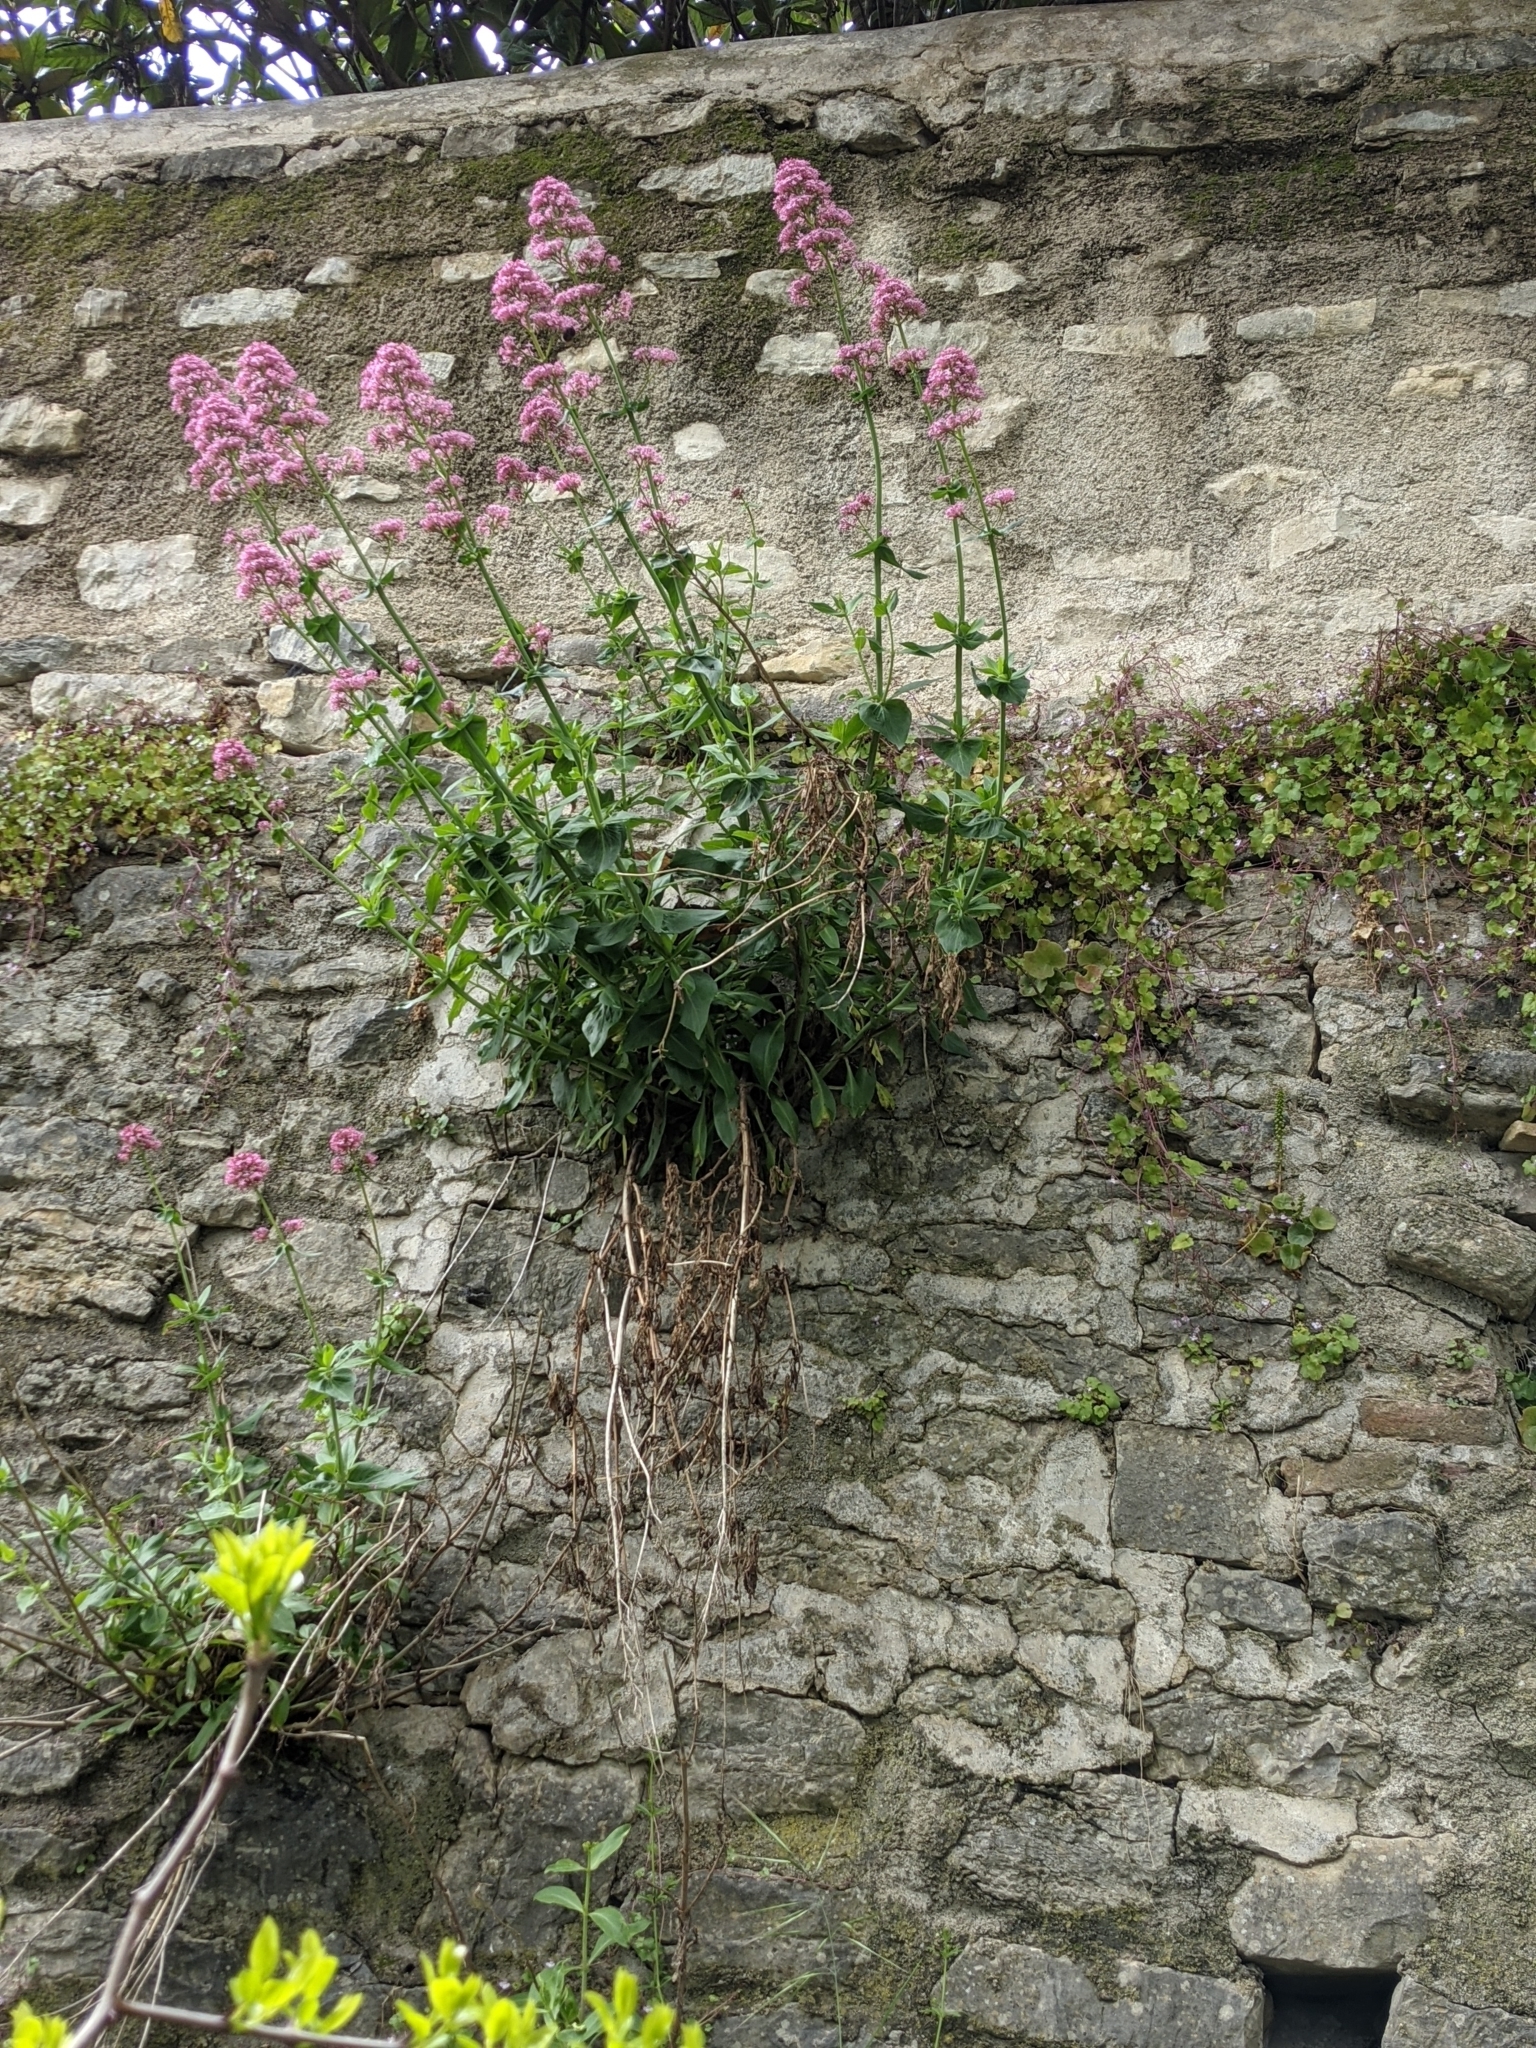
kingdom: Plantae
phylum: Tracheophyta
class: Magnoliopsida
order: Dipsacales
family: Caprifoliaceae
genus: Centranthus
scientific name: Centranthus ruber
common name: Red valerian
